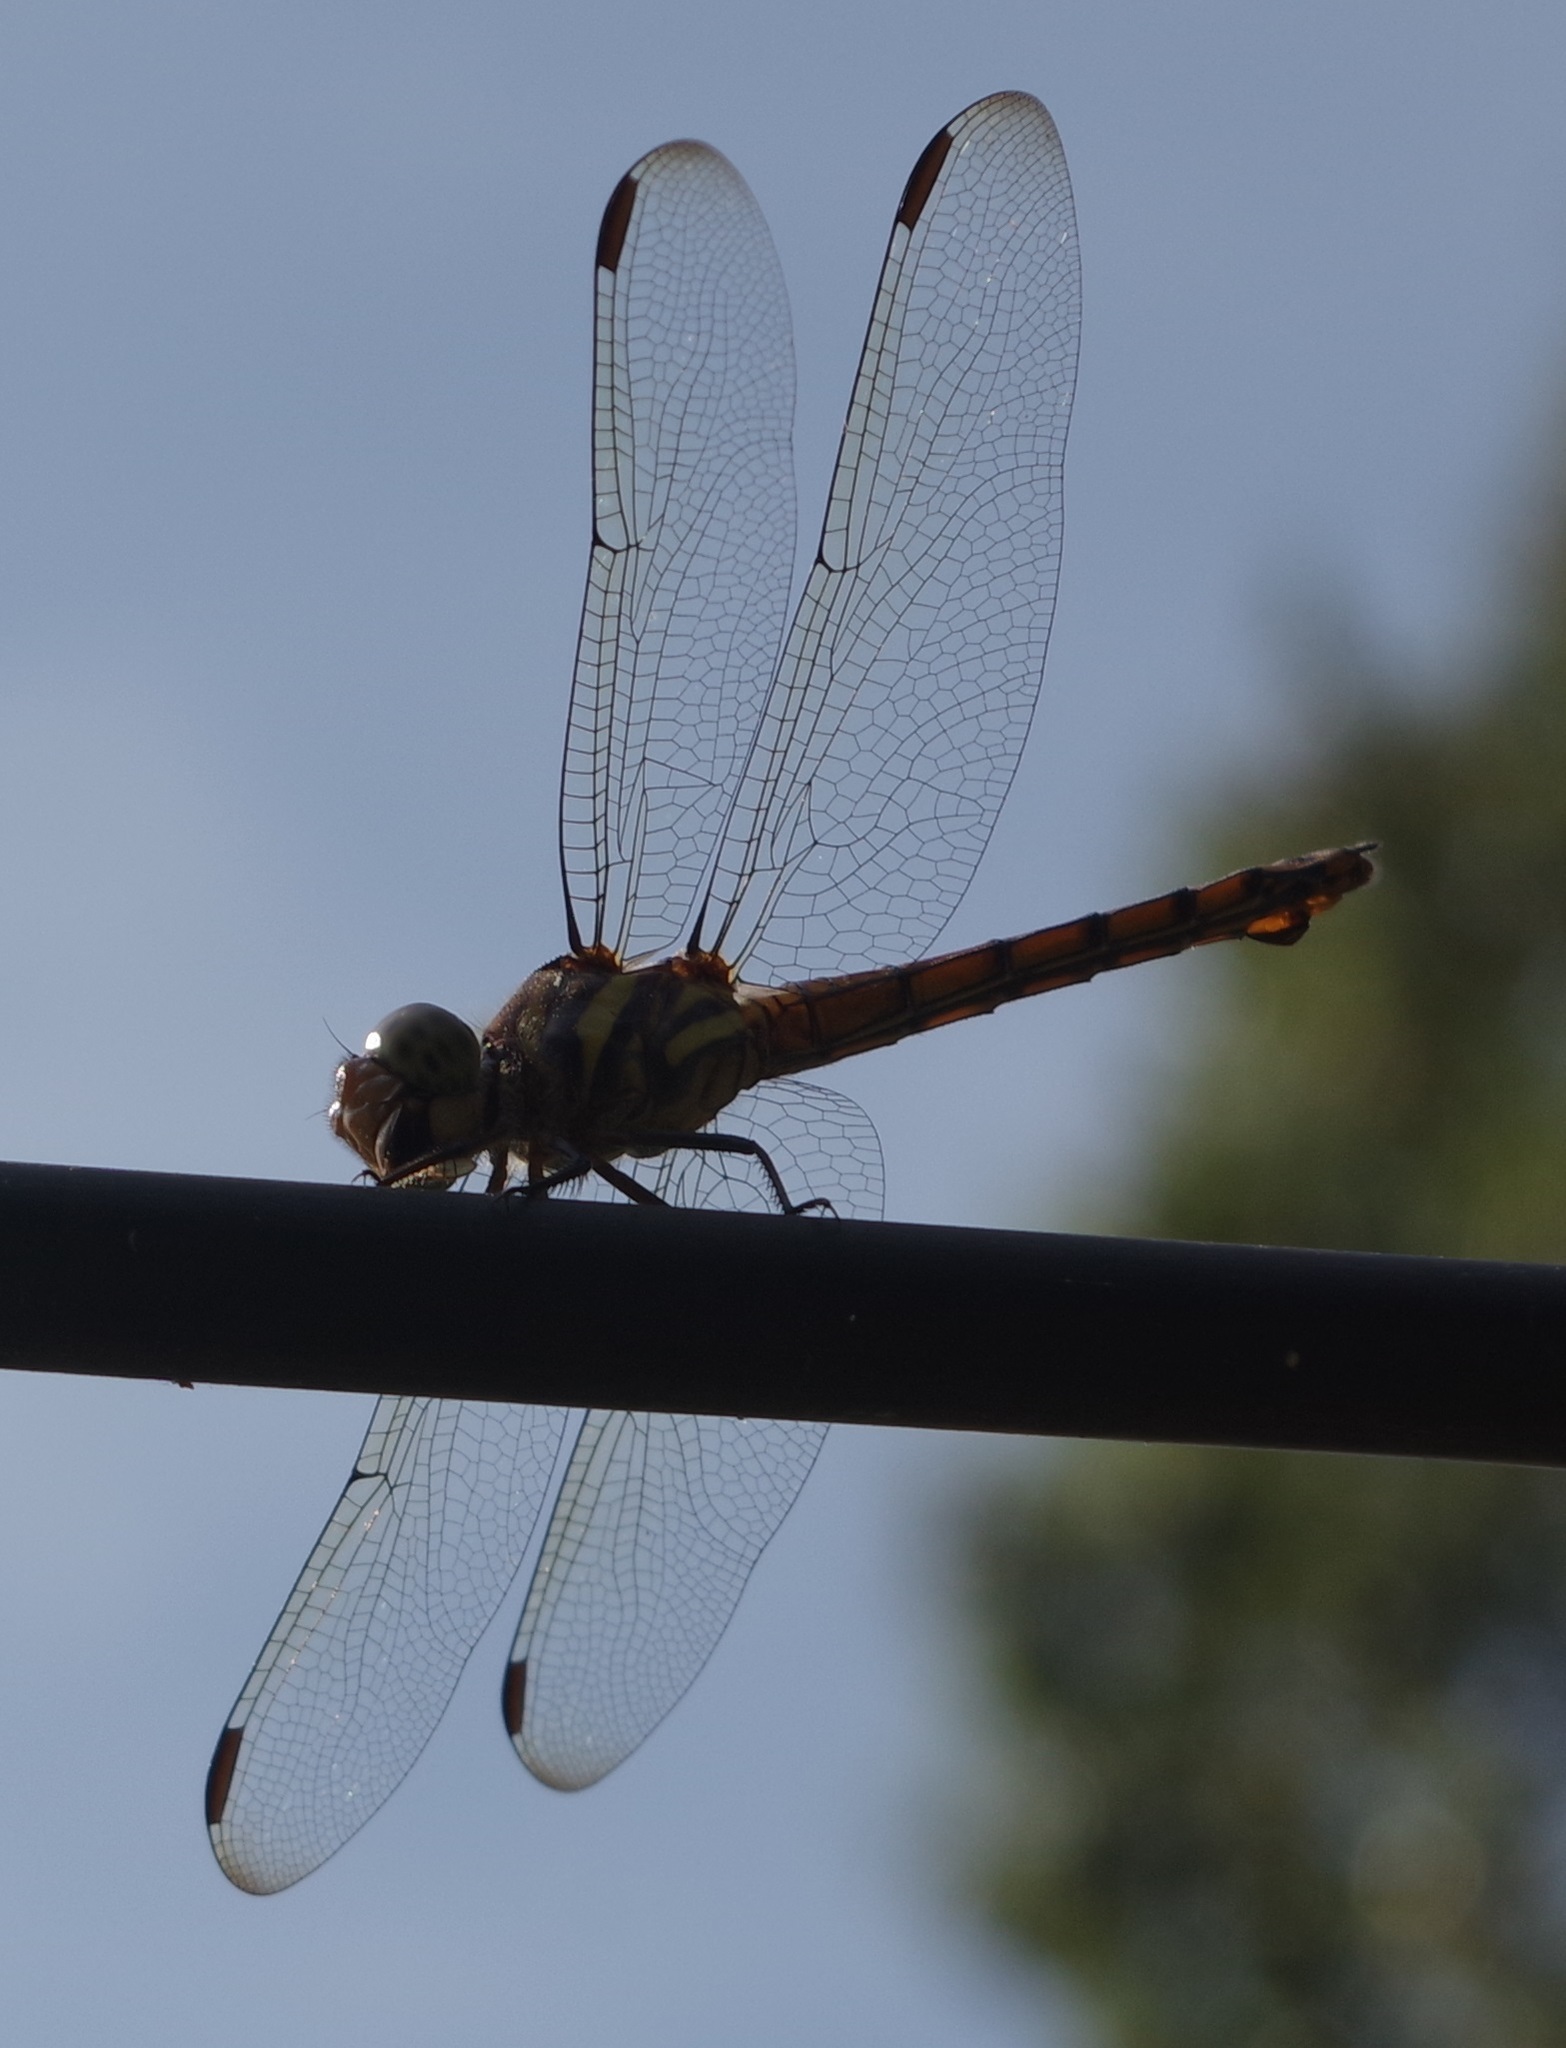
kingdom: Animalia
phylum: Arthropoda
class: Insecta
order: Odonata
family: Libellulidae
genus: Potamarcha
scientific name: Potamarcha congener
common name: Blue chaser
